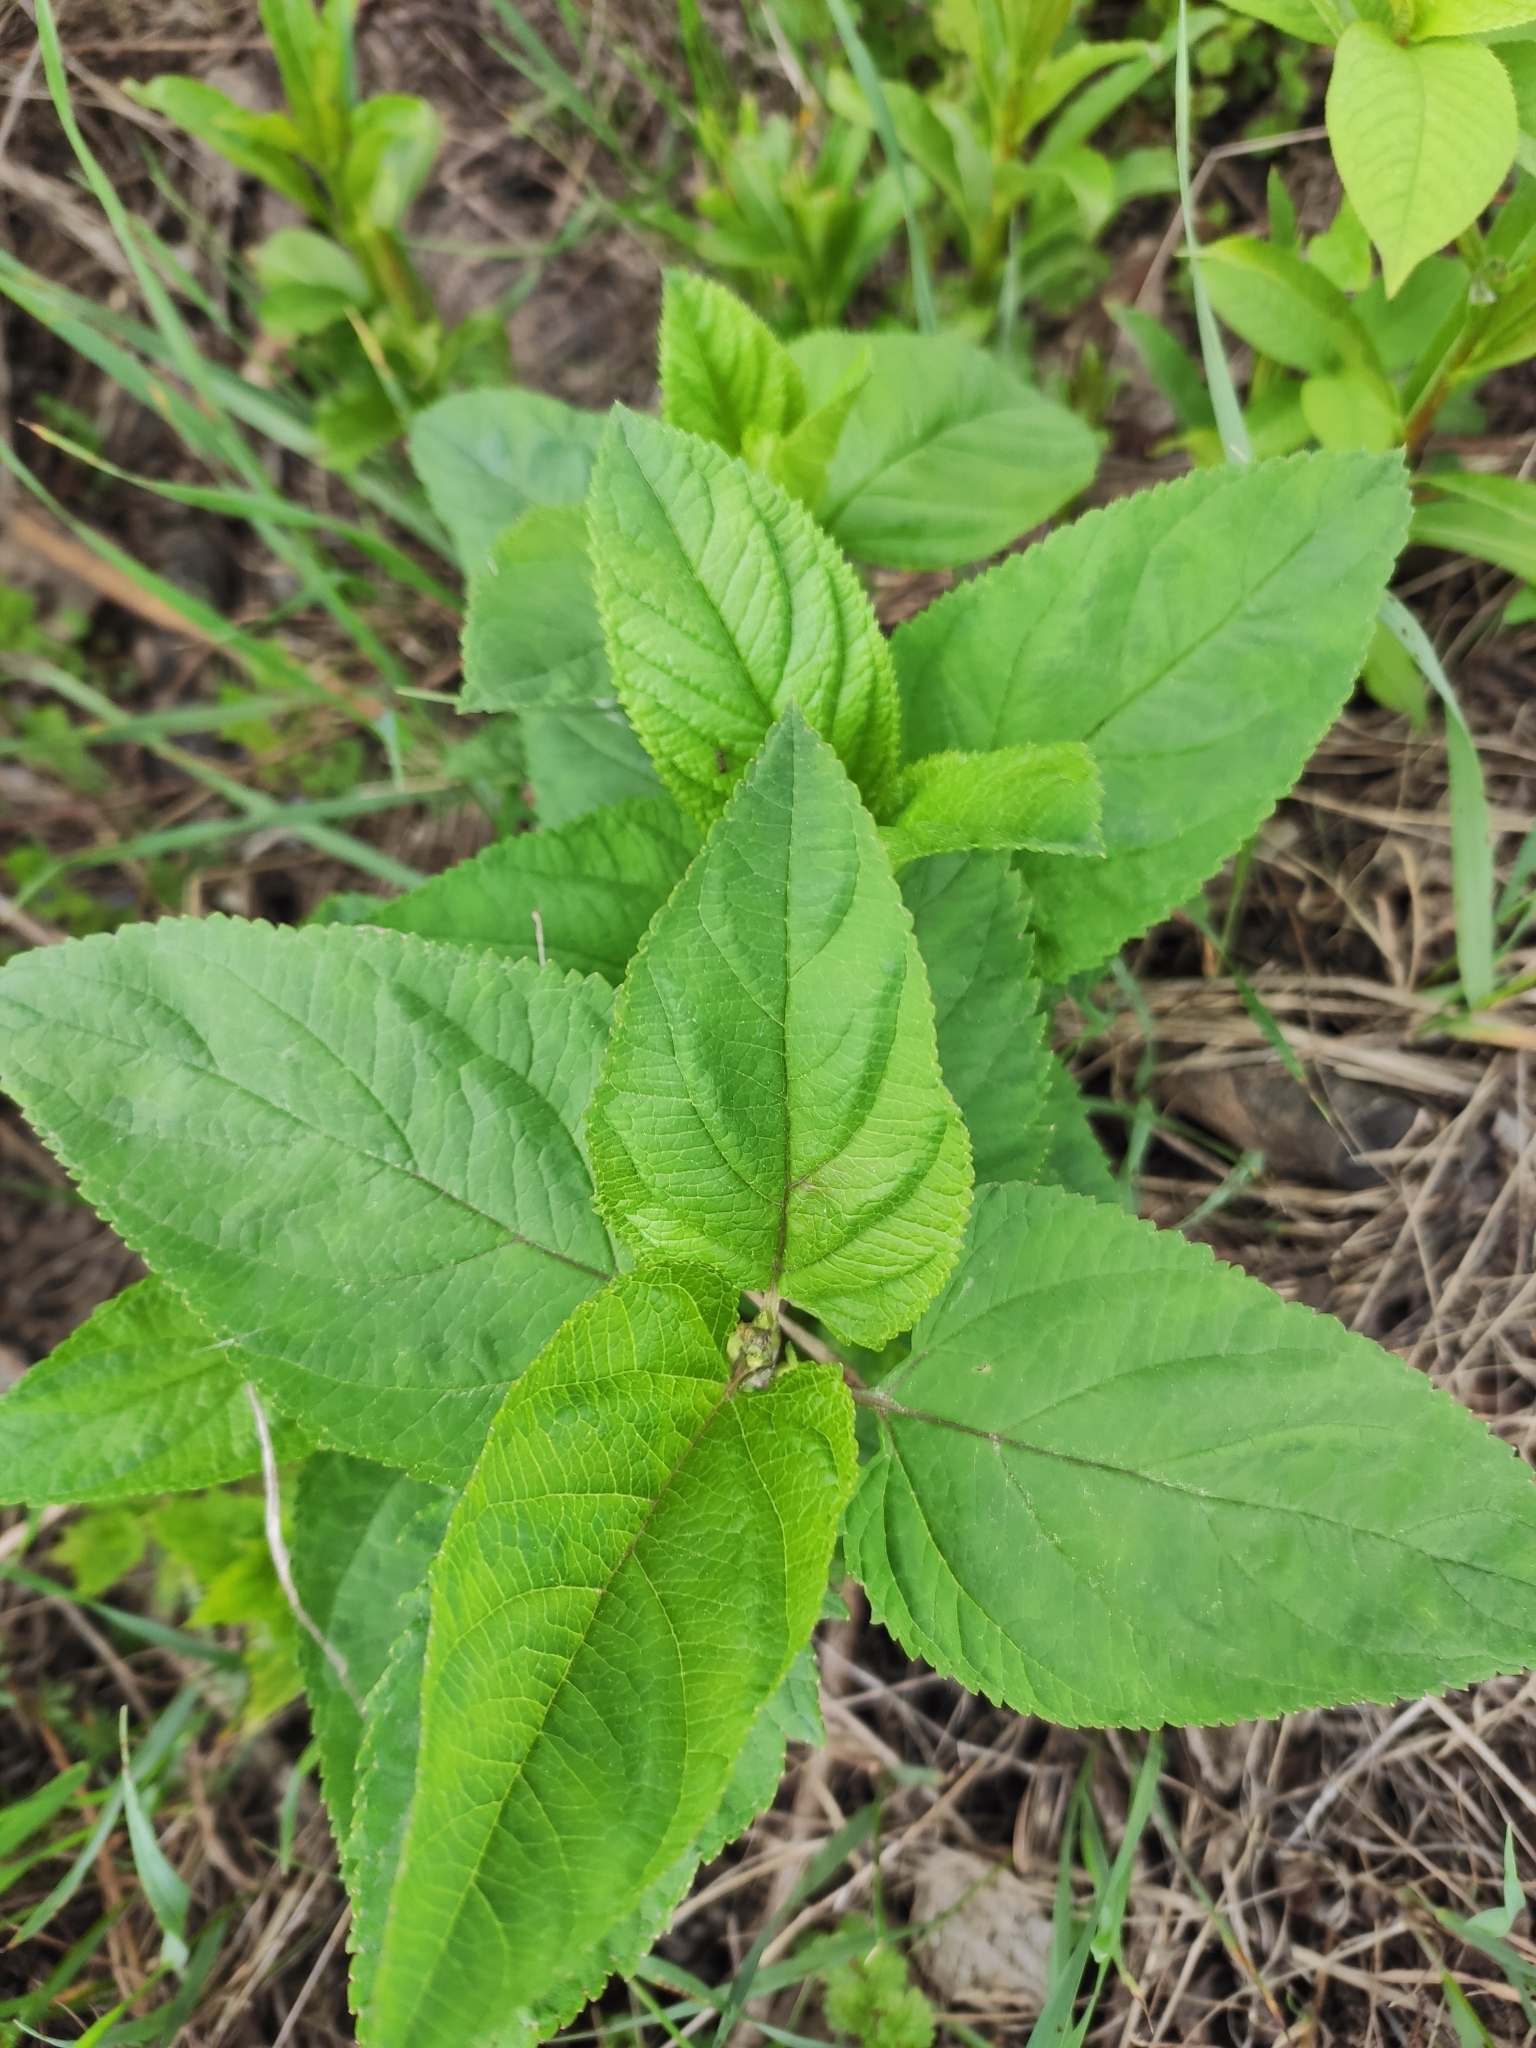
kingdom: Plantae
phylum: Tracheophyta
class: Magnoliopsida
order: Lamiales
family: Scrophulariaceae
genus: Scrophularia
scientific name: Scrophularia nodosa
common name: Common figwort
